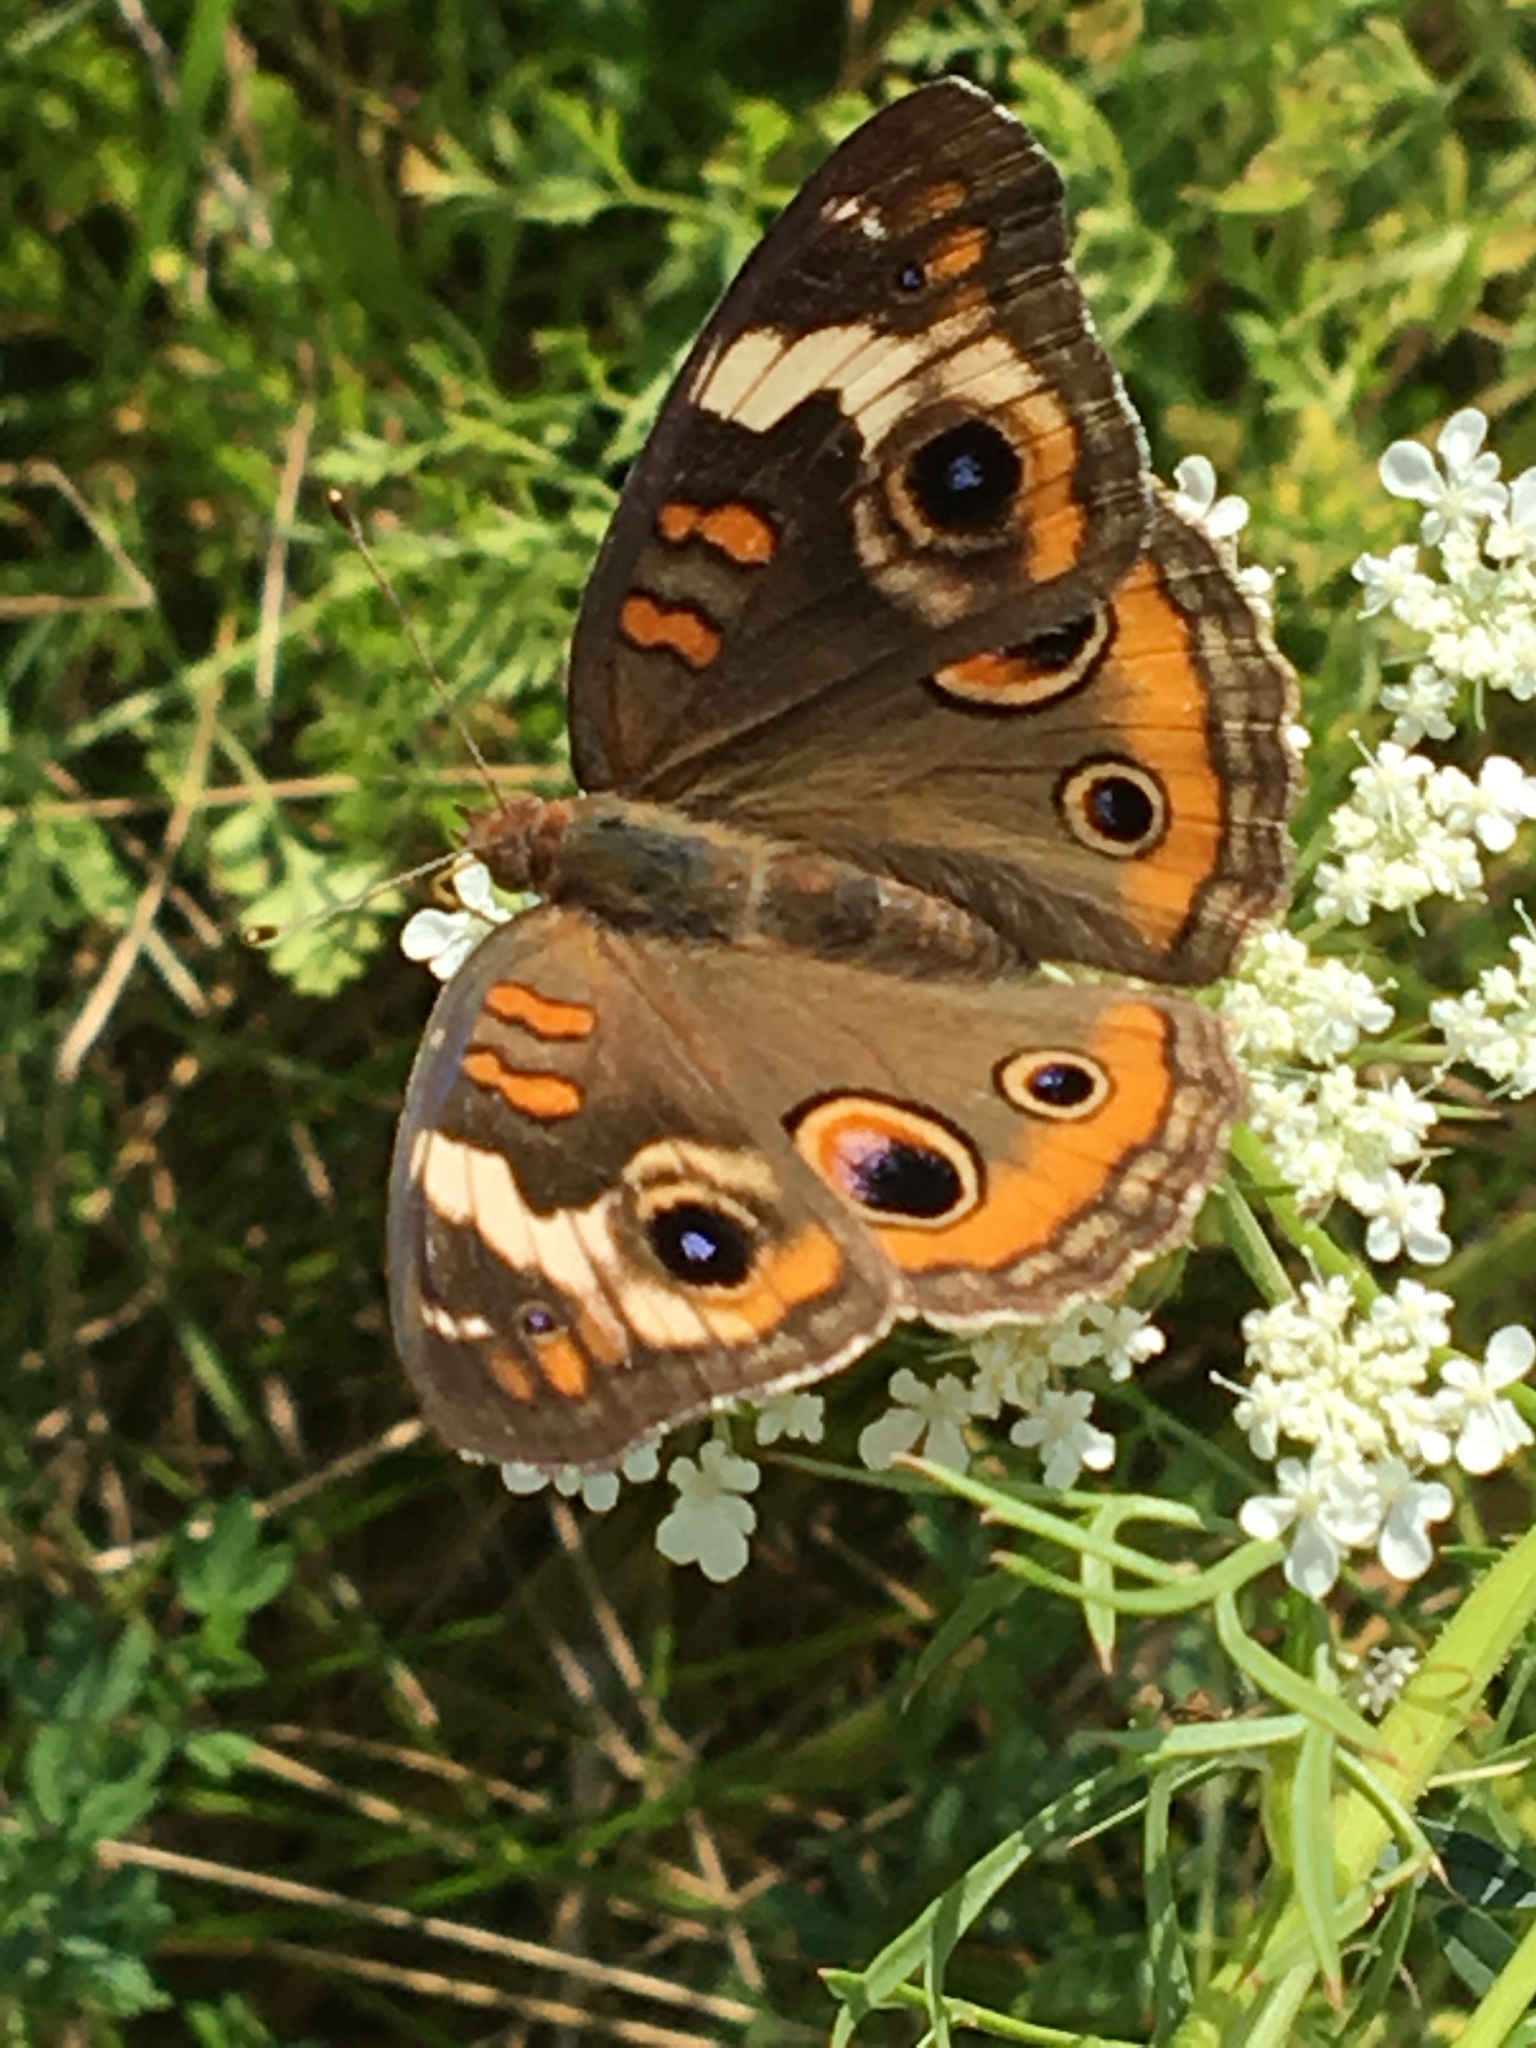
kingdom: Animalia
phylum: Arthropoda
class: Insecta
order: Lepidoptera
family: Nymphalidae
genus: Junonia
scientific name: Junonia coenia
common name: Common buckeye
